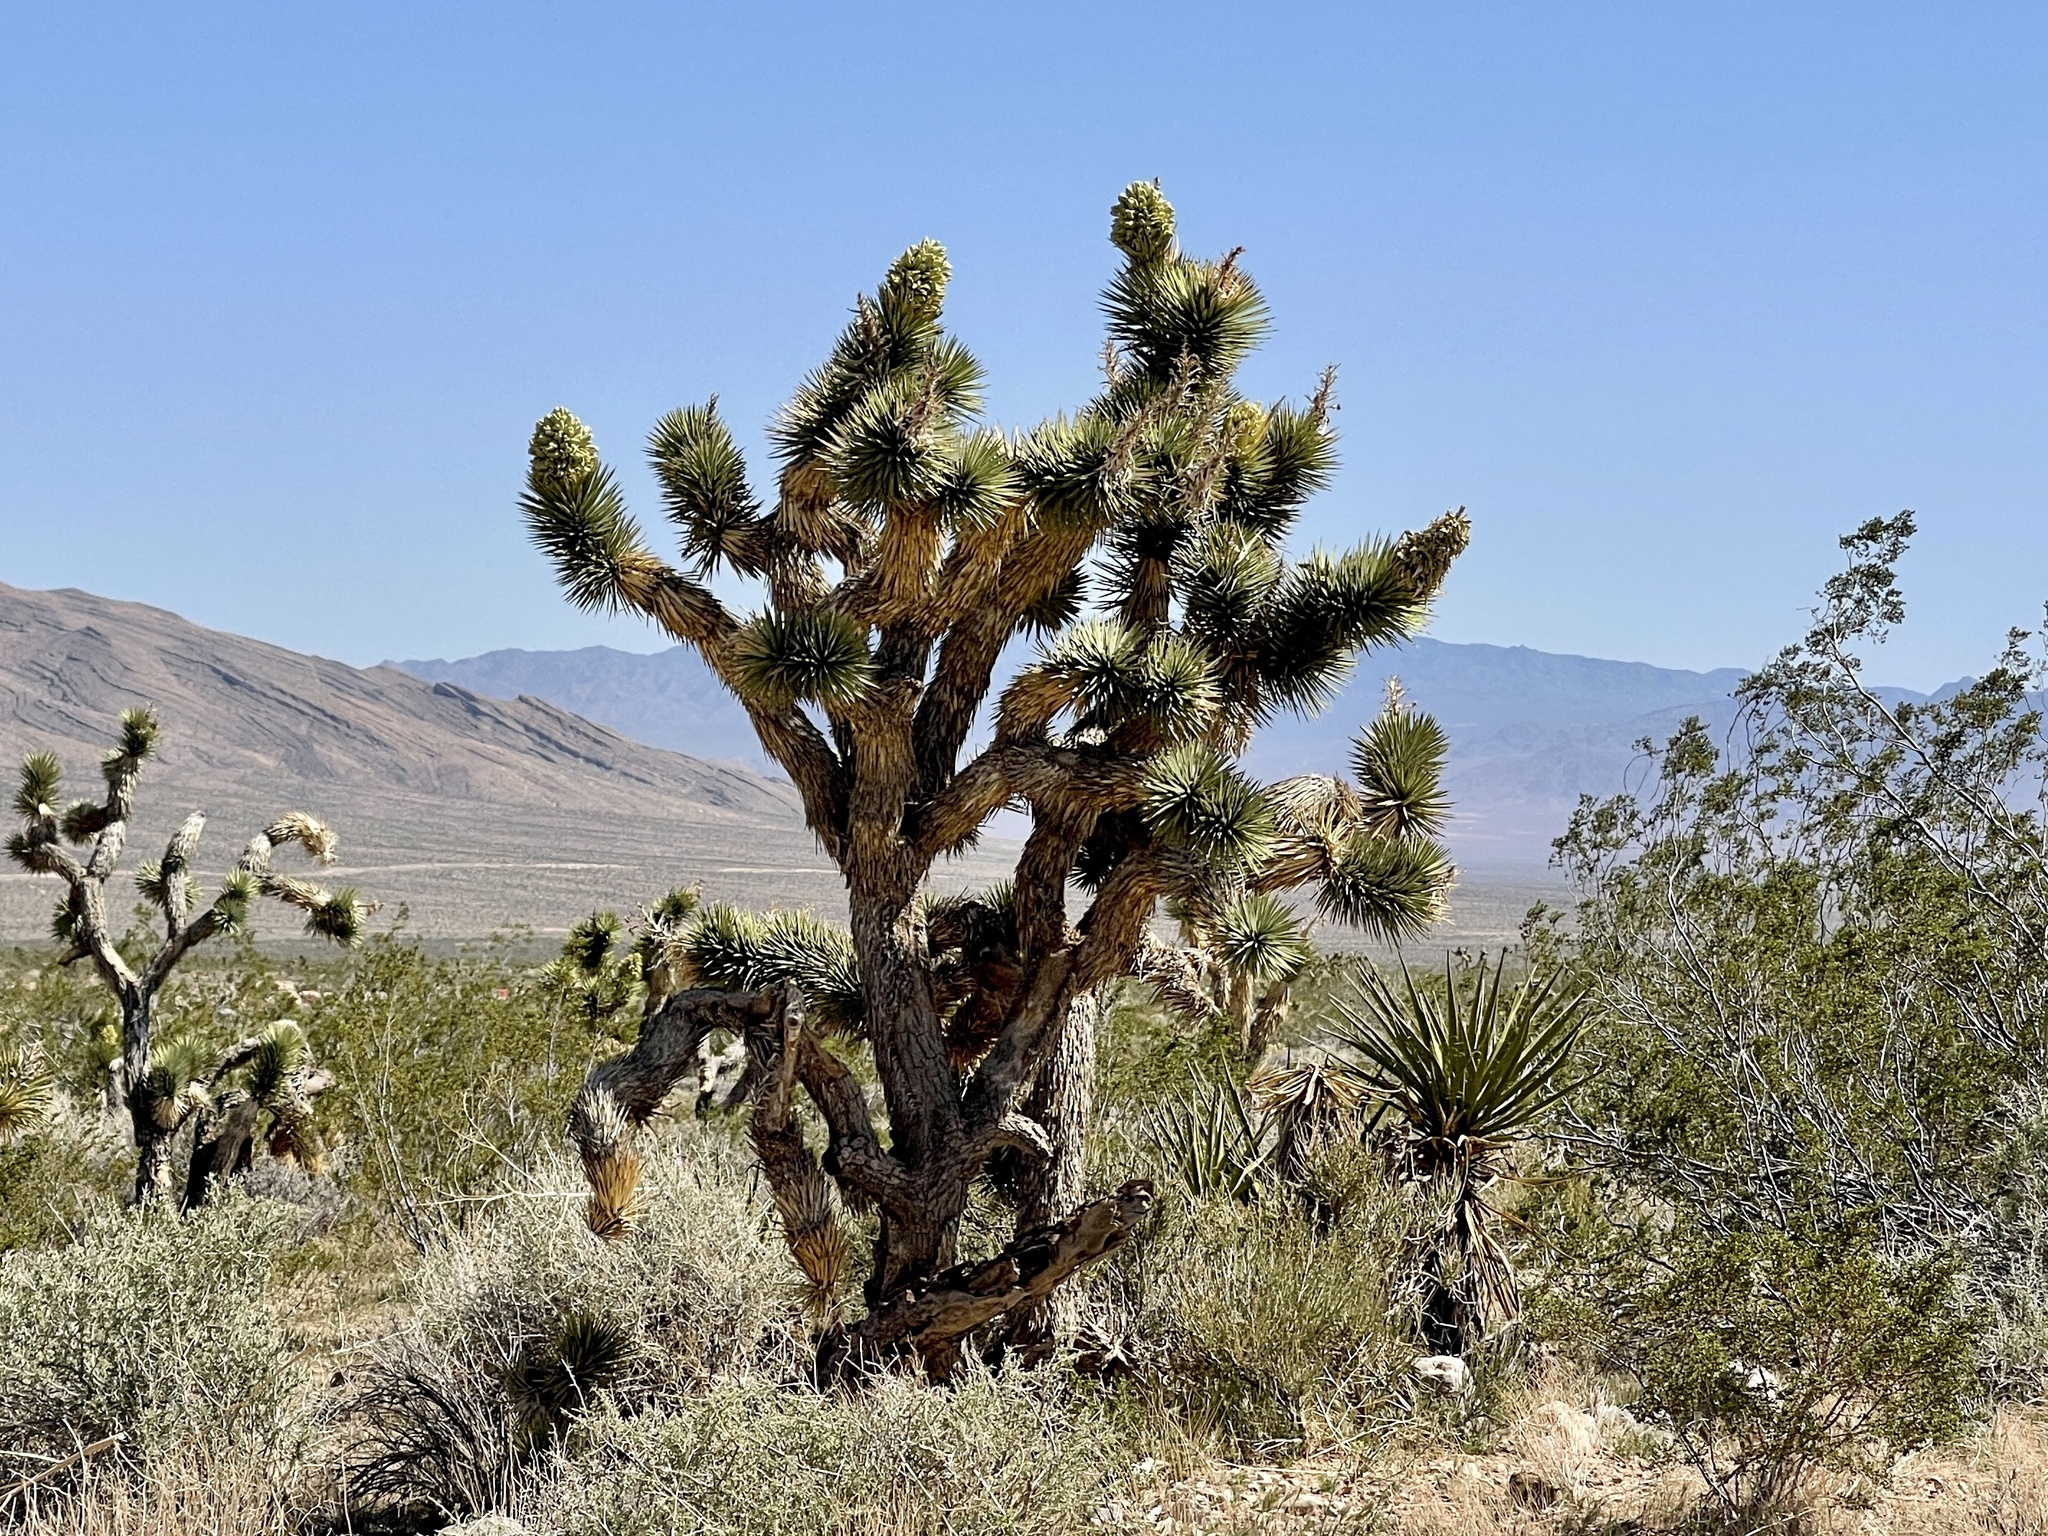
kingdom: Plantae
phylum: Tracheophyta
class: Liliopsida
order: Asparagales
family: Asparagaceae
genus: Yucca
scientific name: Yucca brevifolia
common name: Joshua tree
